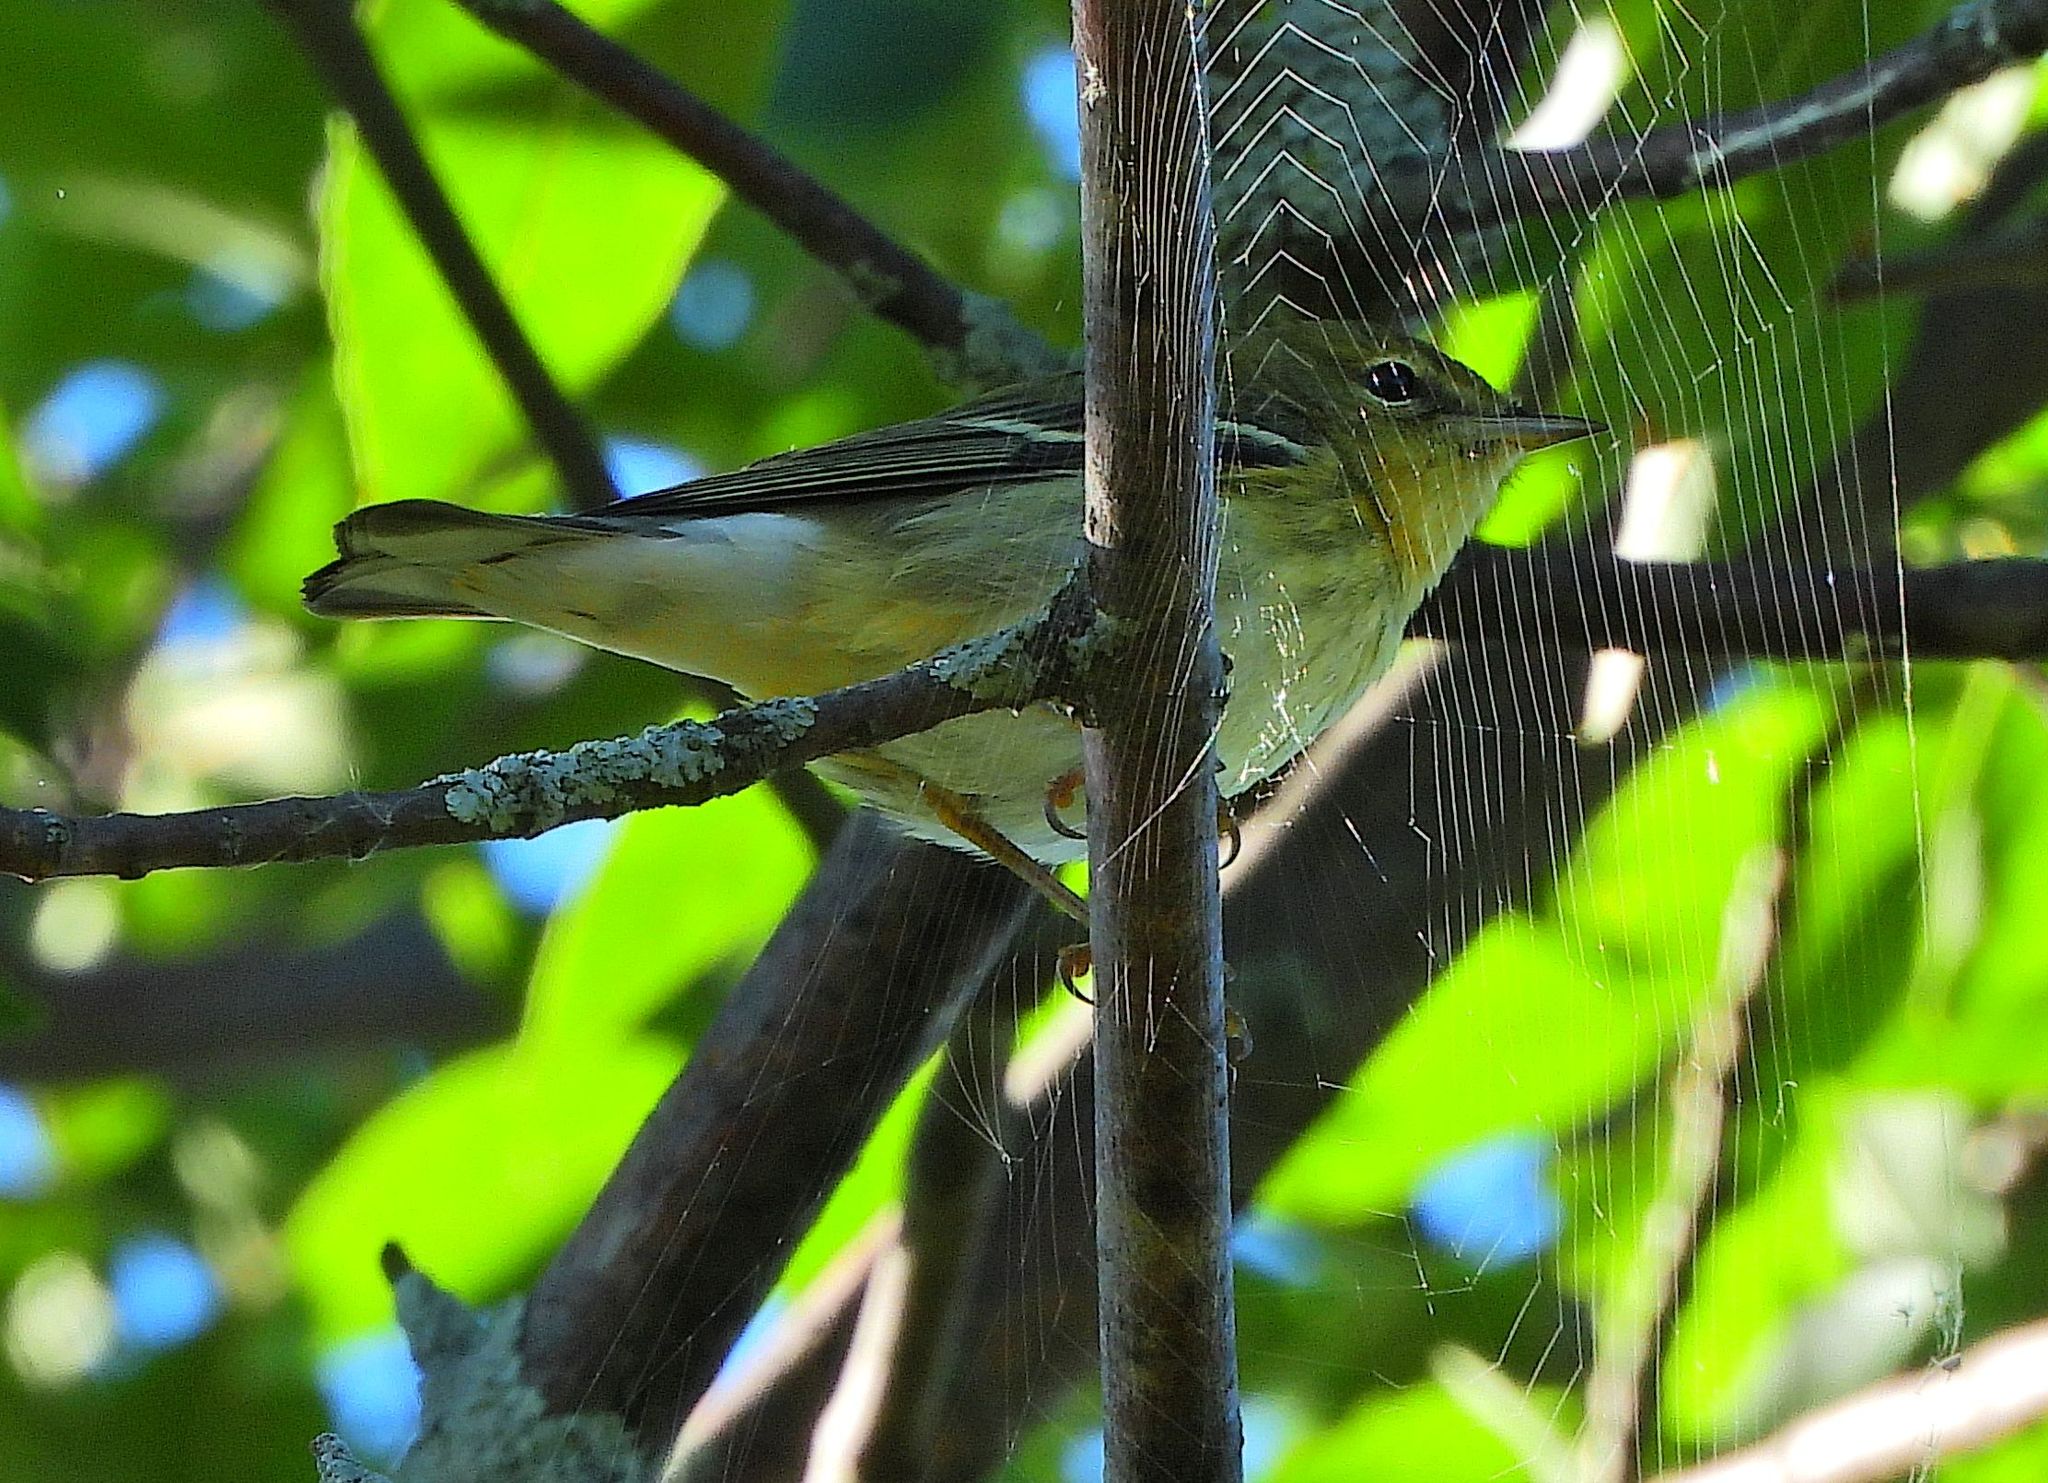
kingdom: Animalia
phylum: Chordata
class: Aves
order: Passeriformes
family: Parulidae
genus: Setophaga
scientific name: Setophaga striata
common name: Blackpoll warbler
